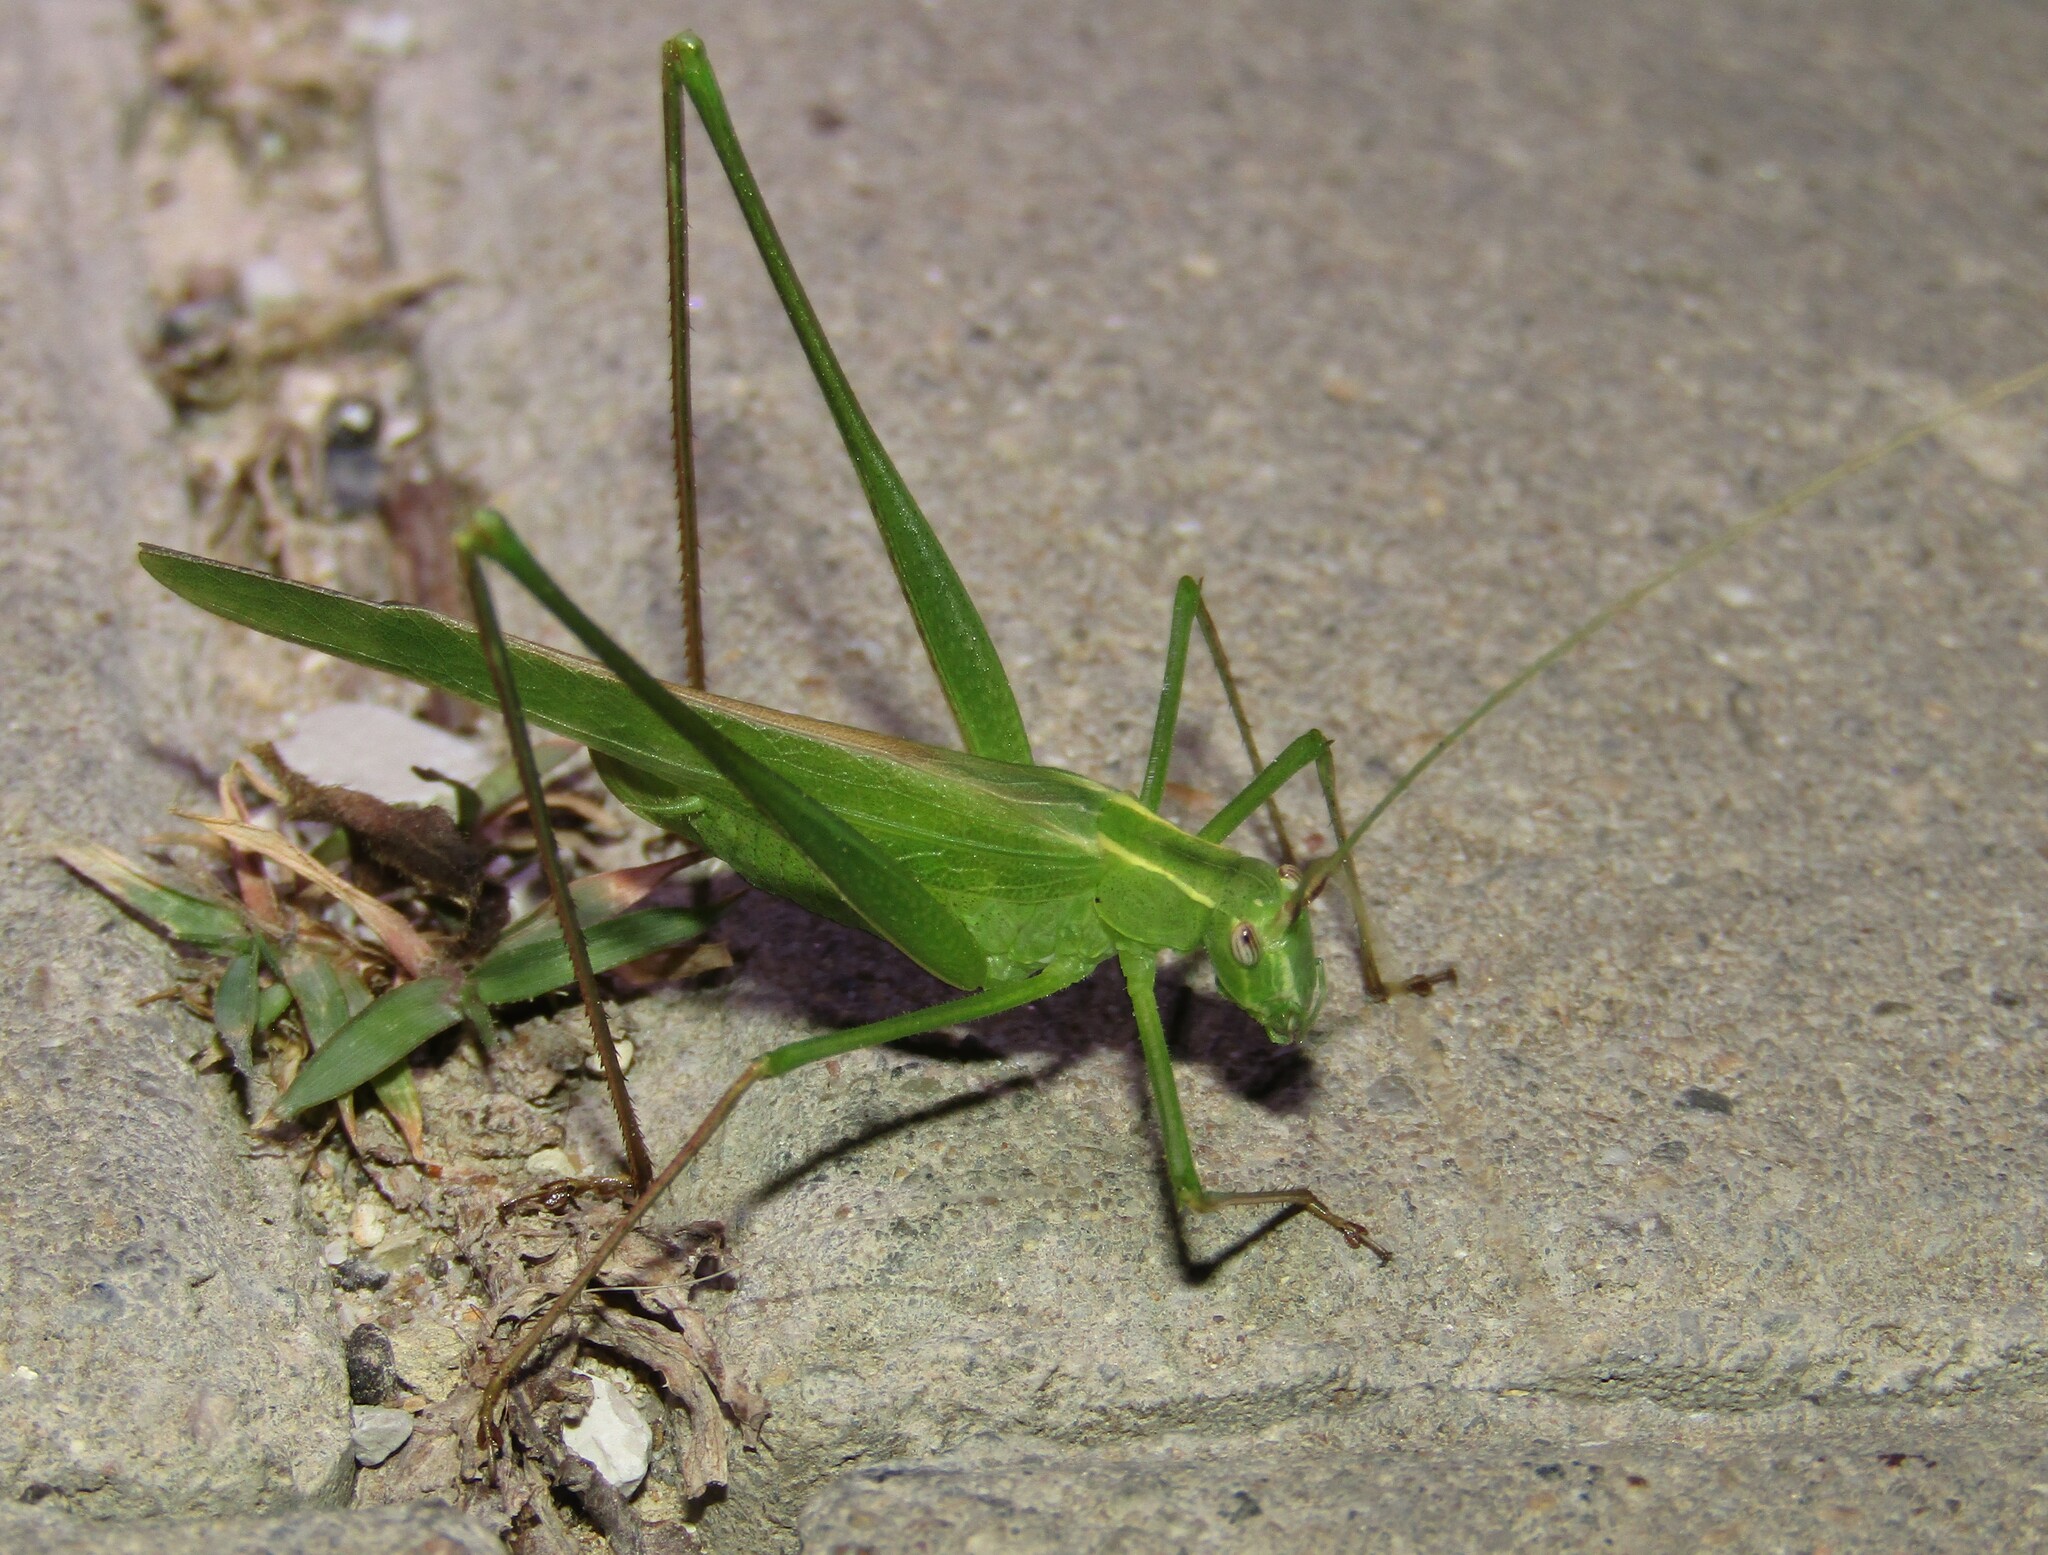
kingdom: Animalia
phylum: Arthropoda
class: Insecta
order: Orthoptera
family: Tettigoniidae
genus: Tylopsis
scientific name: Tylopsis lilifolia
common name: Lily bush-cricket
